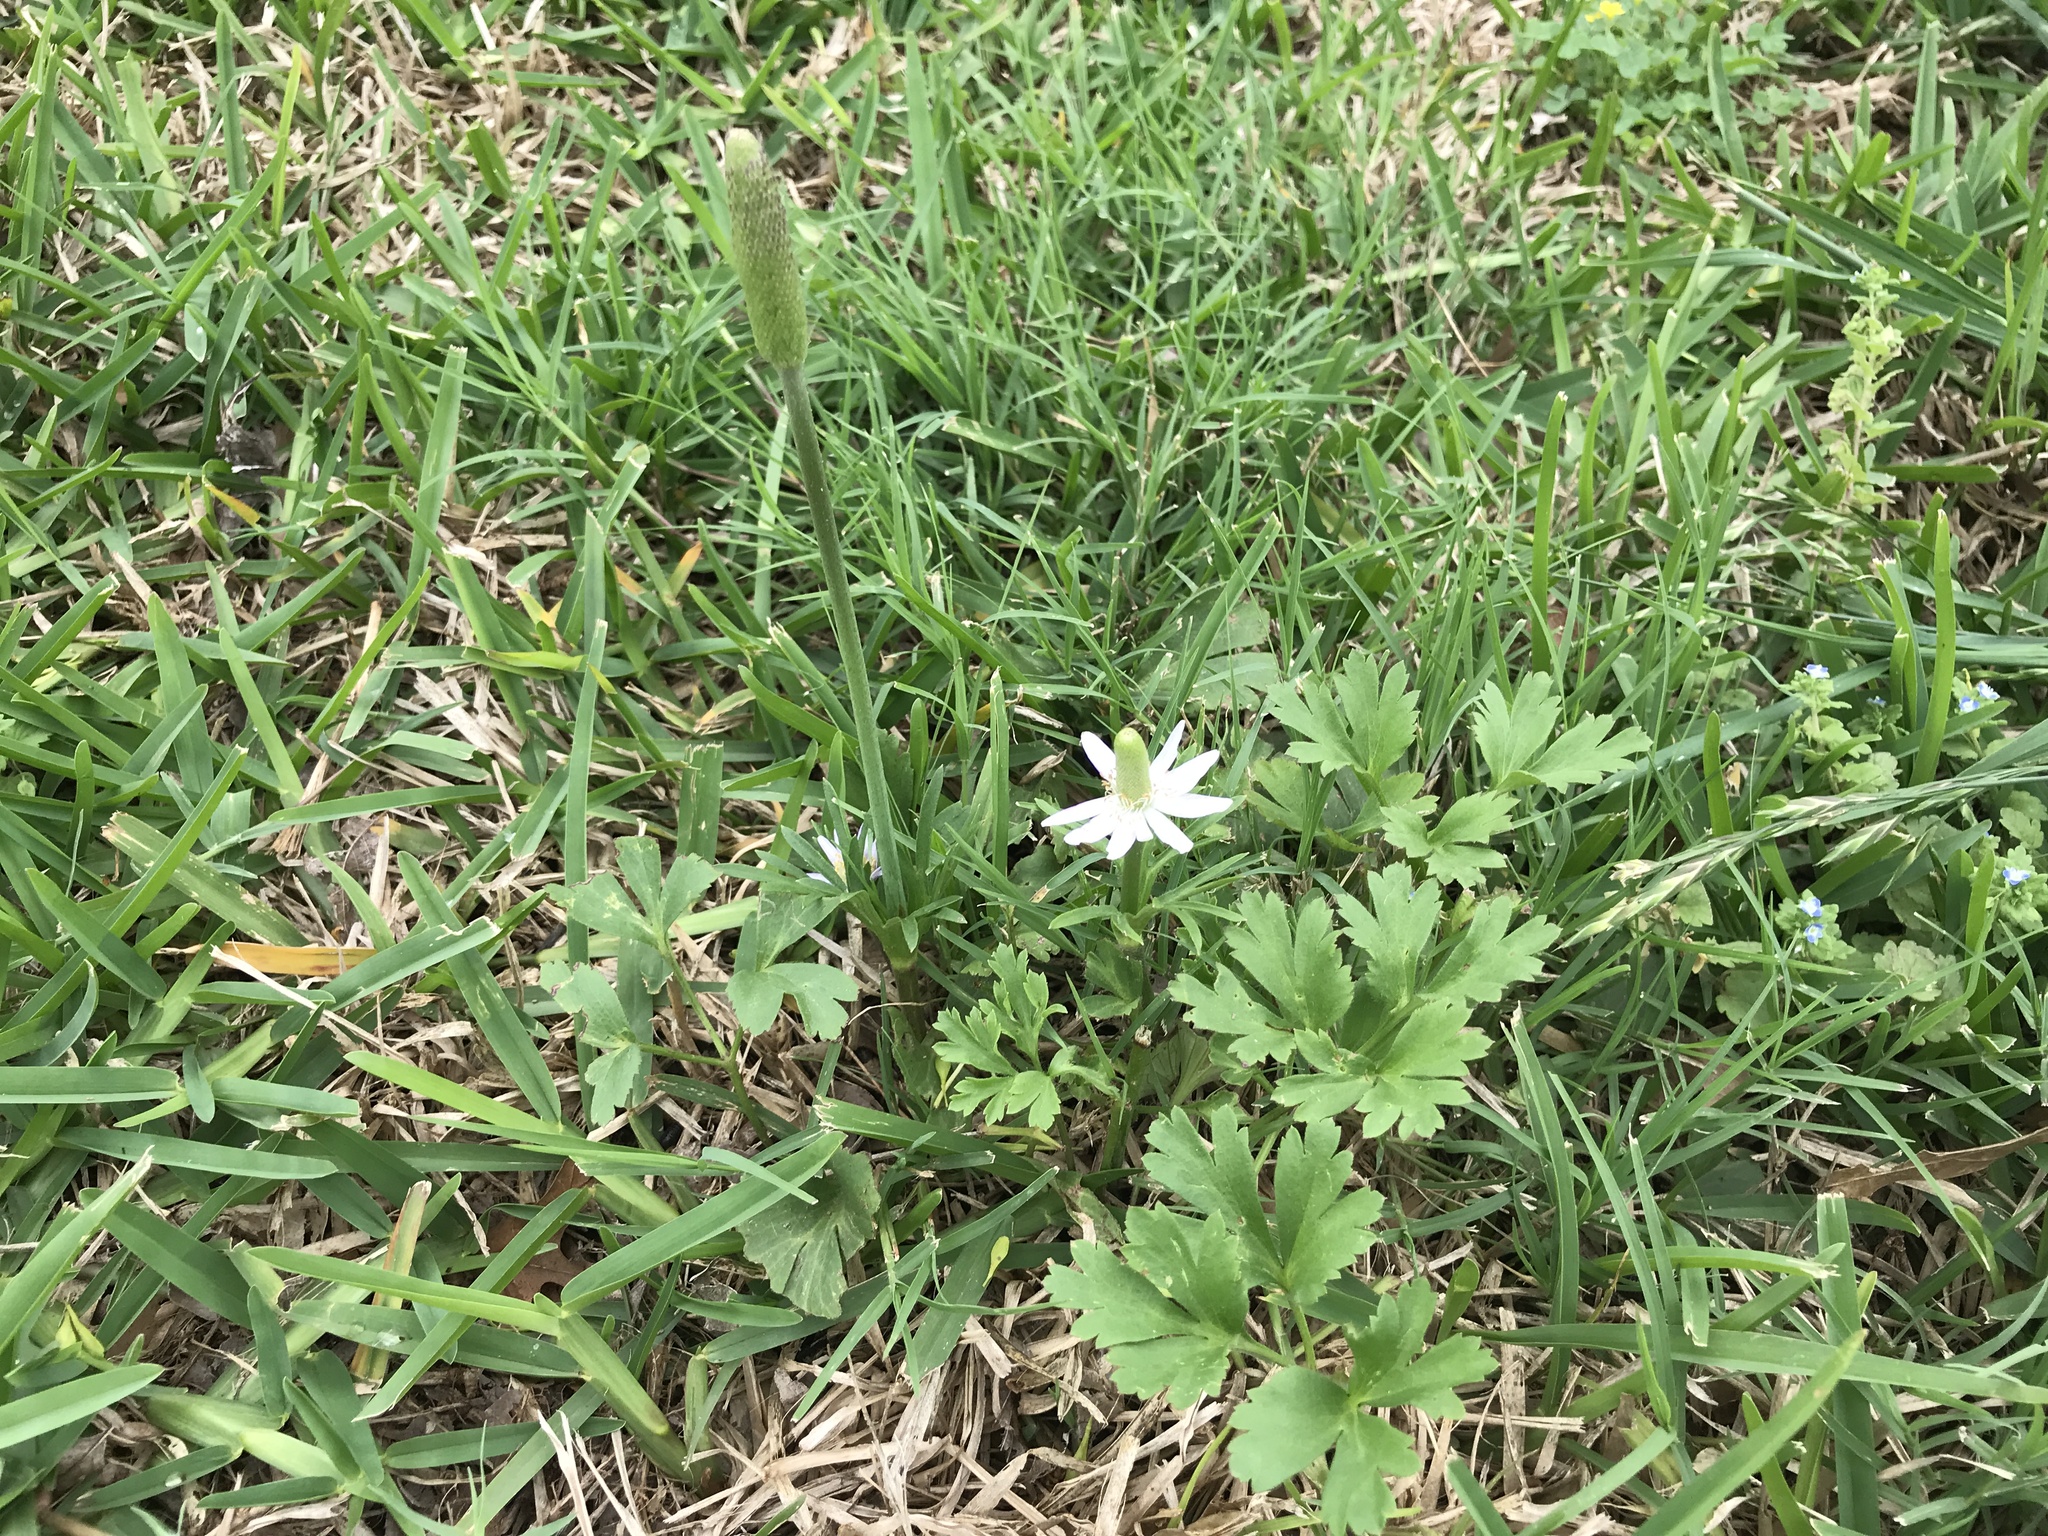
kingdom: Plantae
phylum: Tracheophyta
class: Magnoliopsida
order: Ranunculales
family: Ranunculaceae
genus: Anemone
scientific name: Anemone berlandieri
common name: Ten-petal anemone
